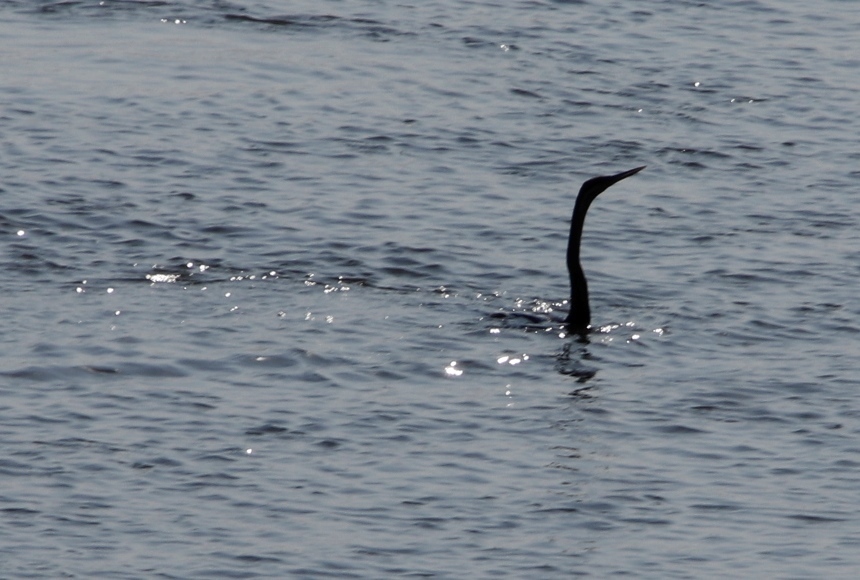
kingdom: Animalia
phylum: Chordata
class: Aves
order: Suliformes
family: Anhingidae
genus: Anhinga
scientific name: Anhinga rufa
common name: African darter
